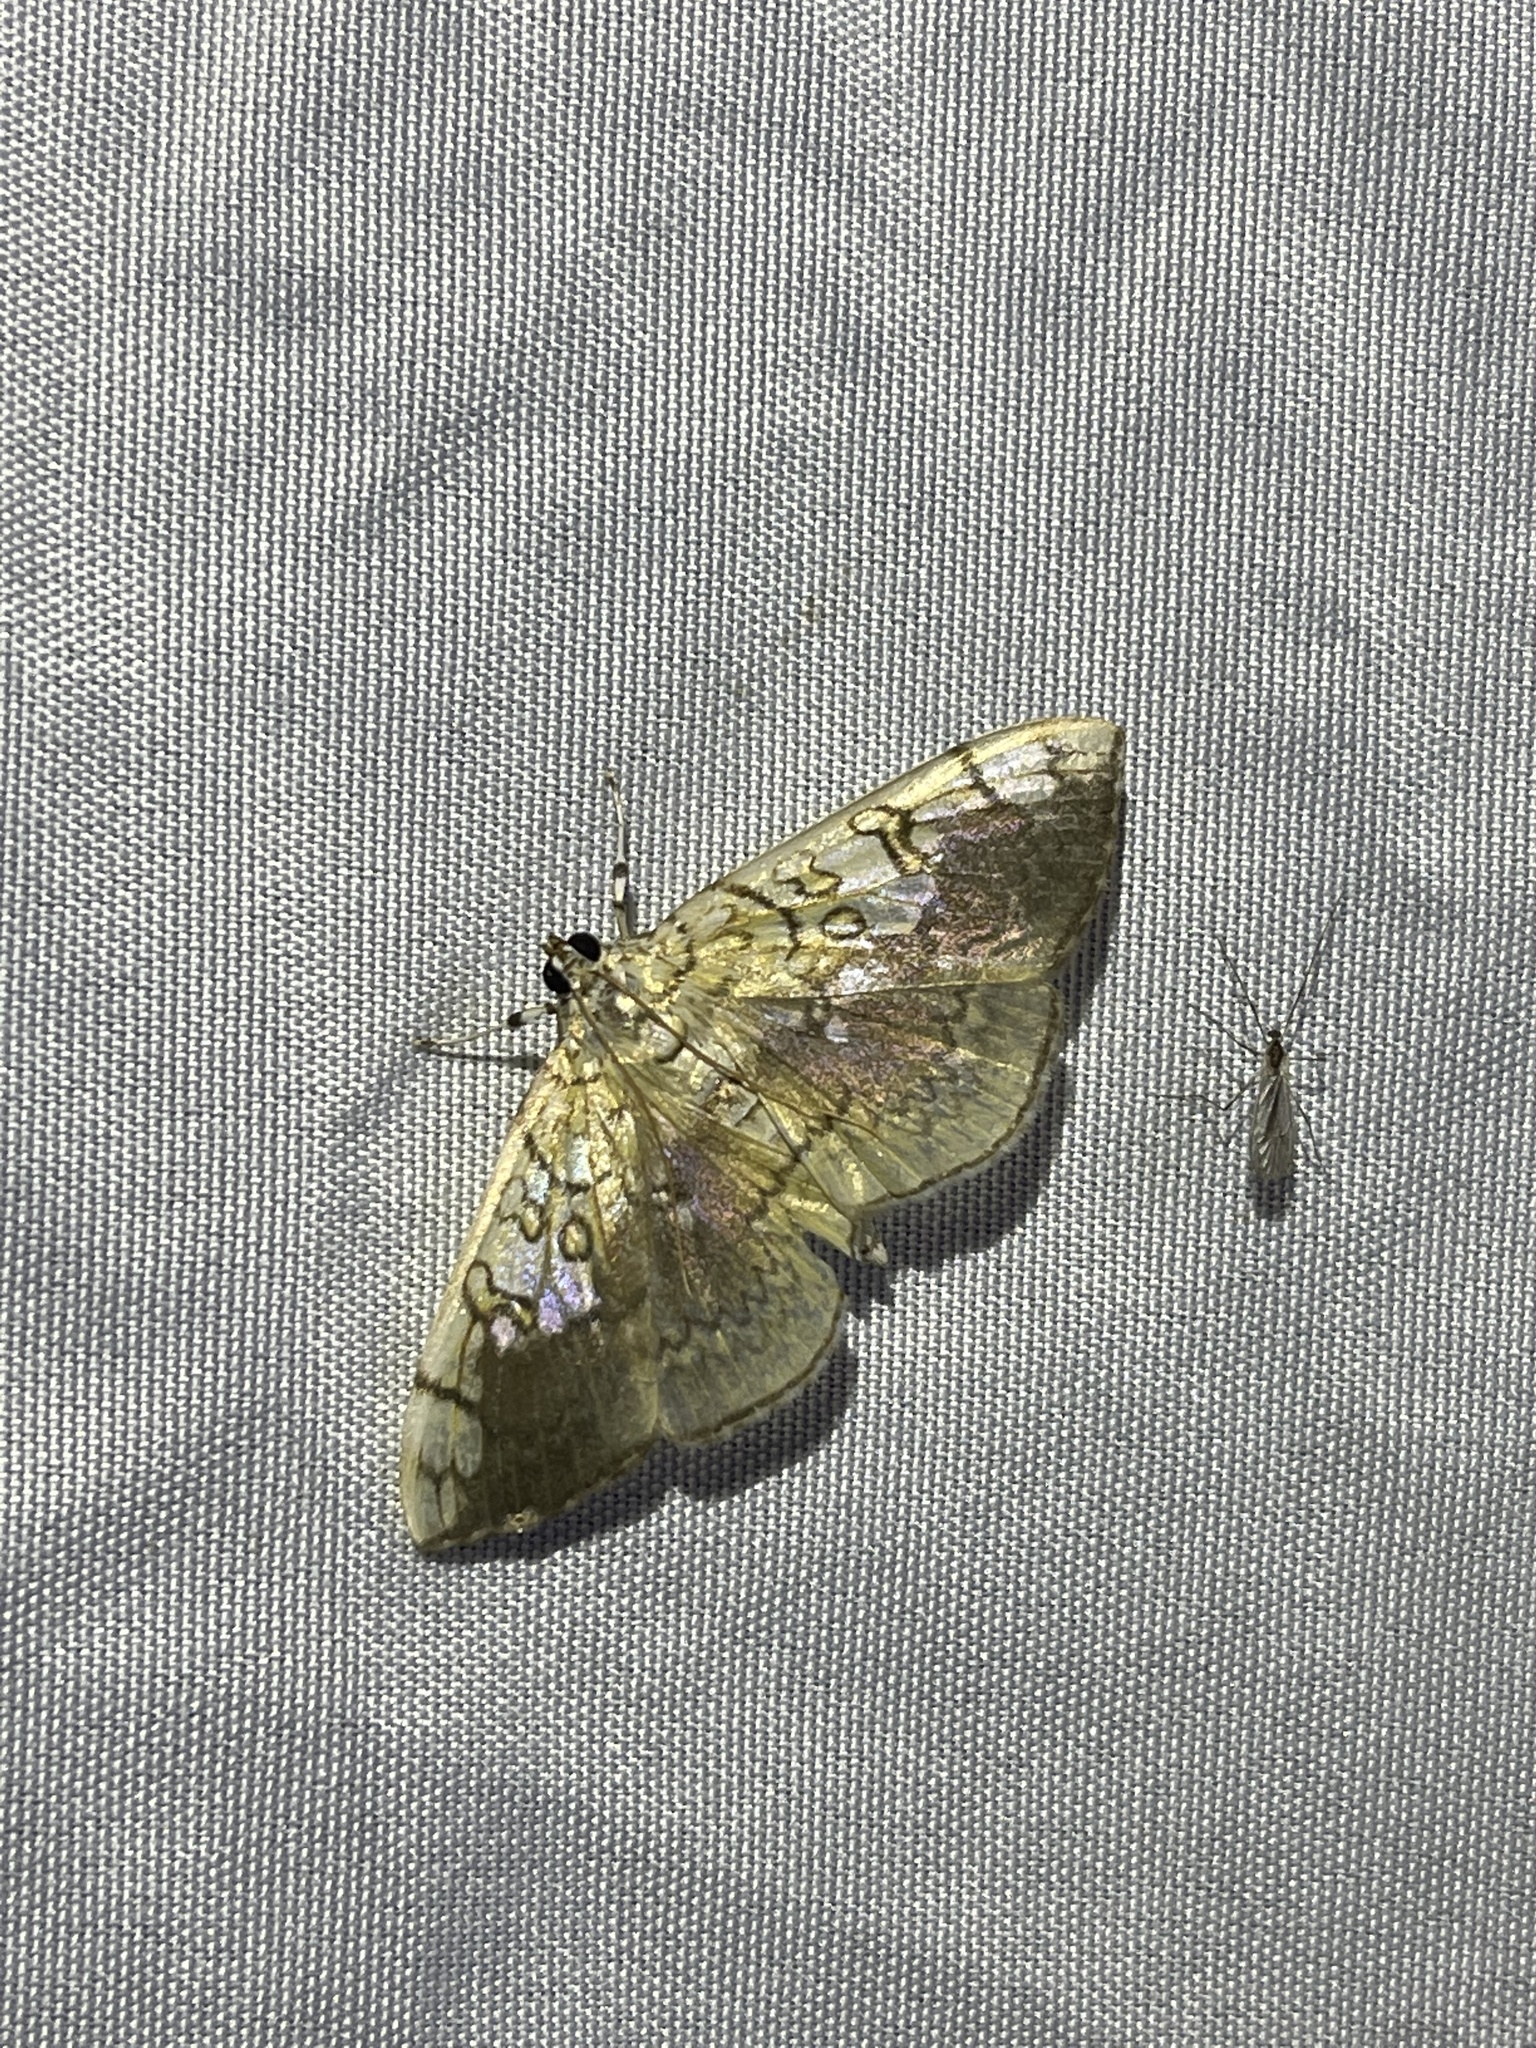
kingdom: Animalia
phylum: Arthropoda
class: Insecta
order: Lepidoptera
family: Crambidae
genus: Pantographa
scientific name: Pantographa limata
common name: Basswood leafroller moth
